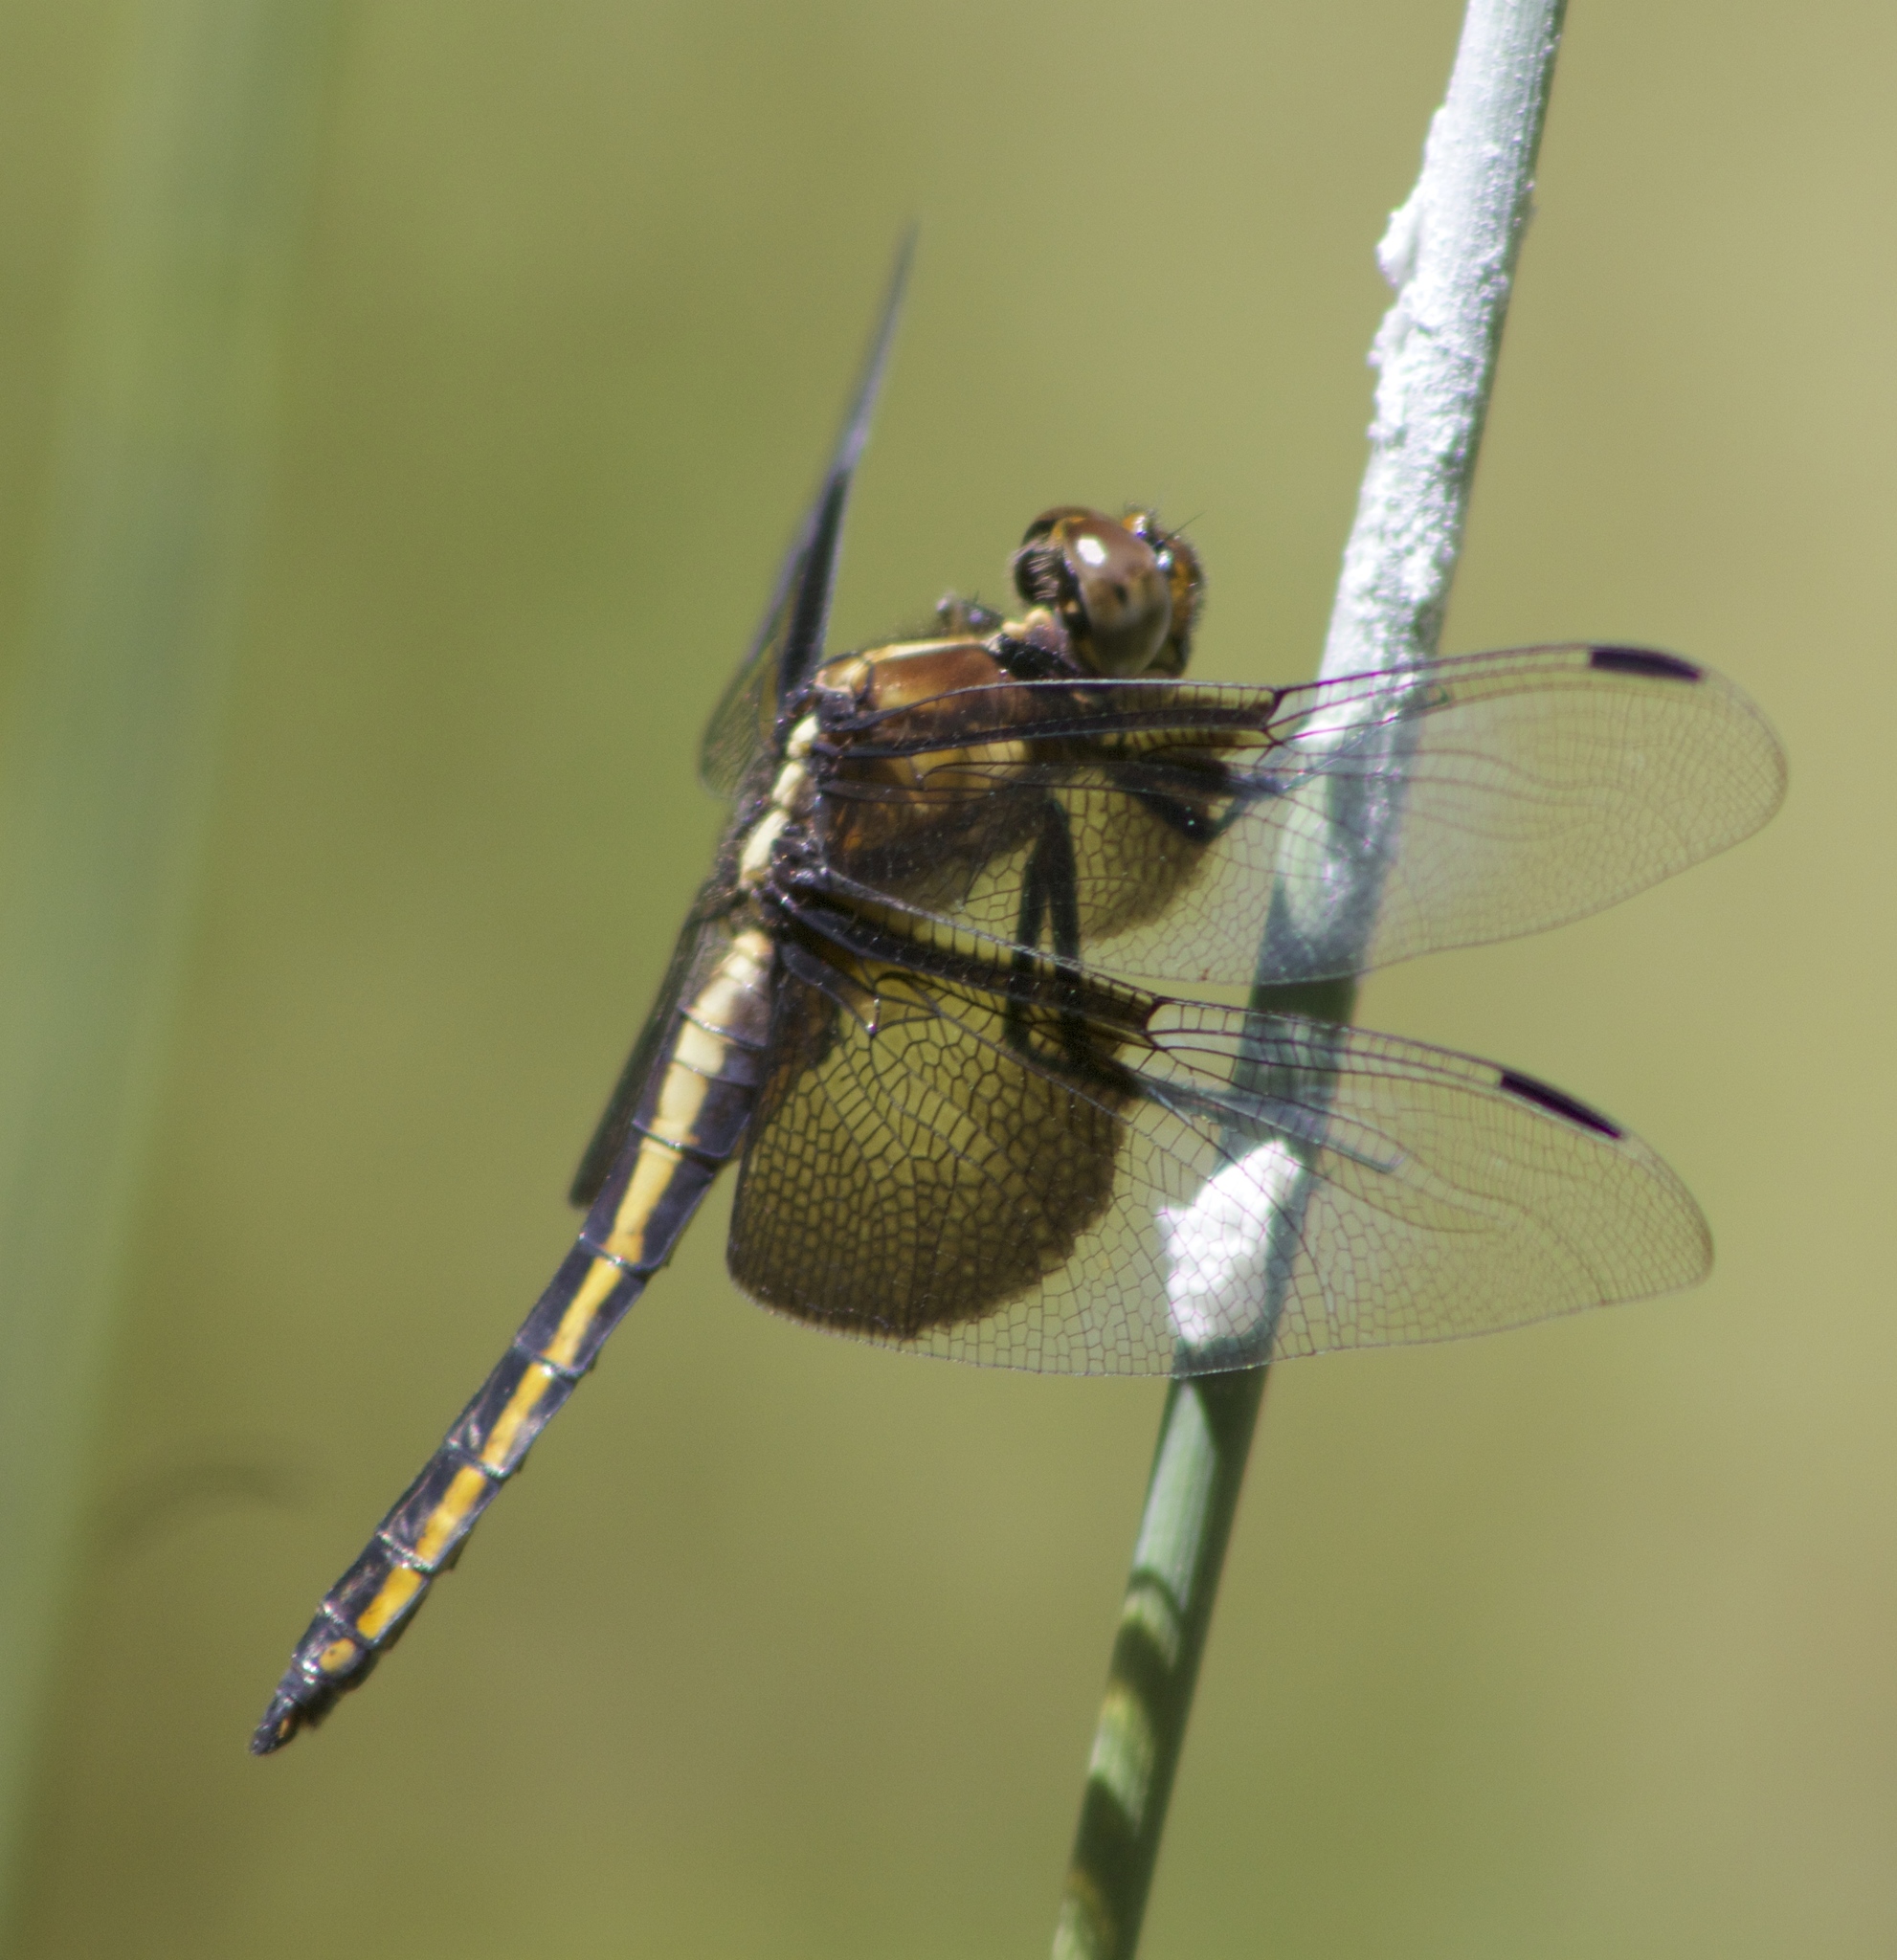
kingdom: Animalia
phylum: Arthropoda
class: Insecta
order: Odonata
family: Libellulidae
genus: Libellula
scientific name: Libellula luctuosa
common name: Widow skimmer
